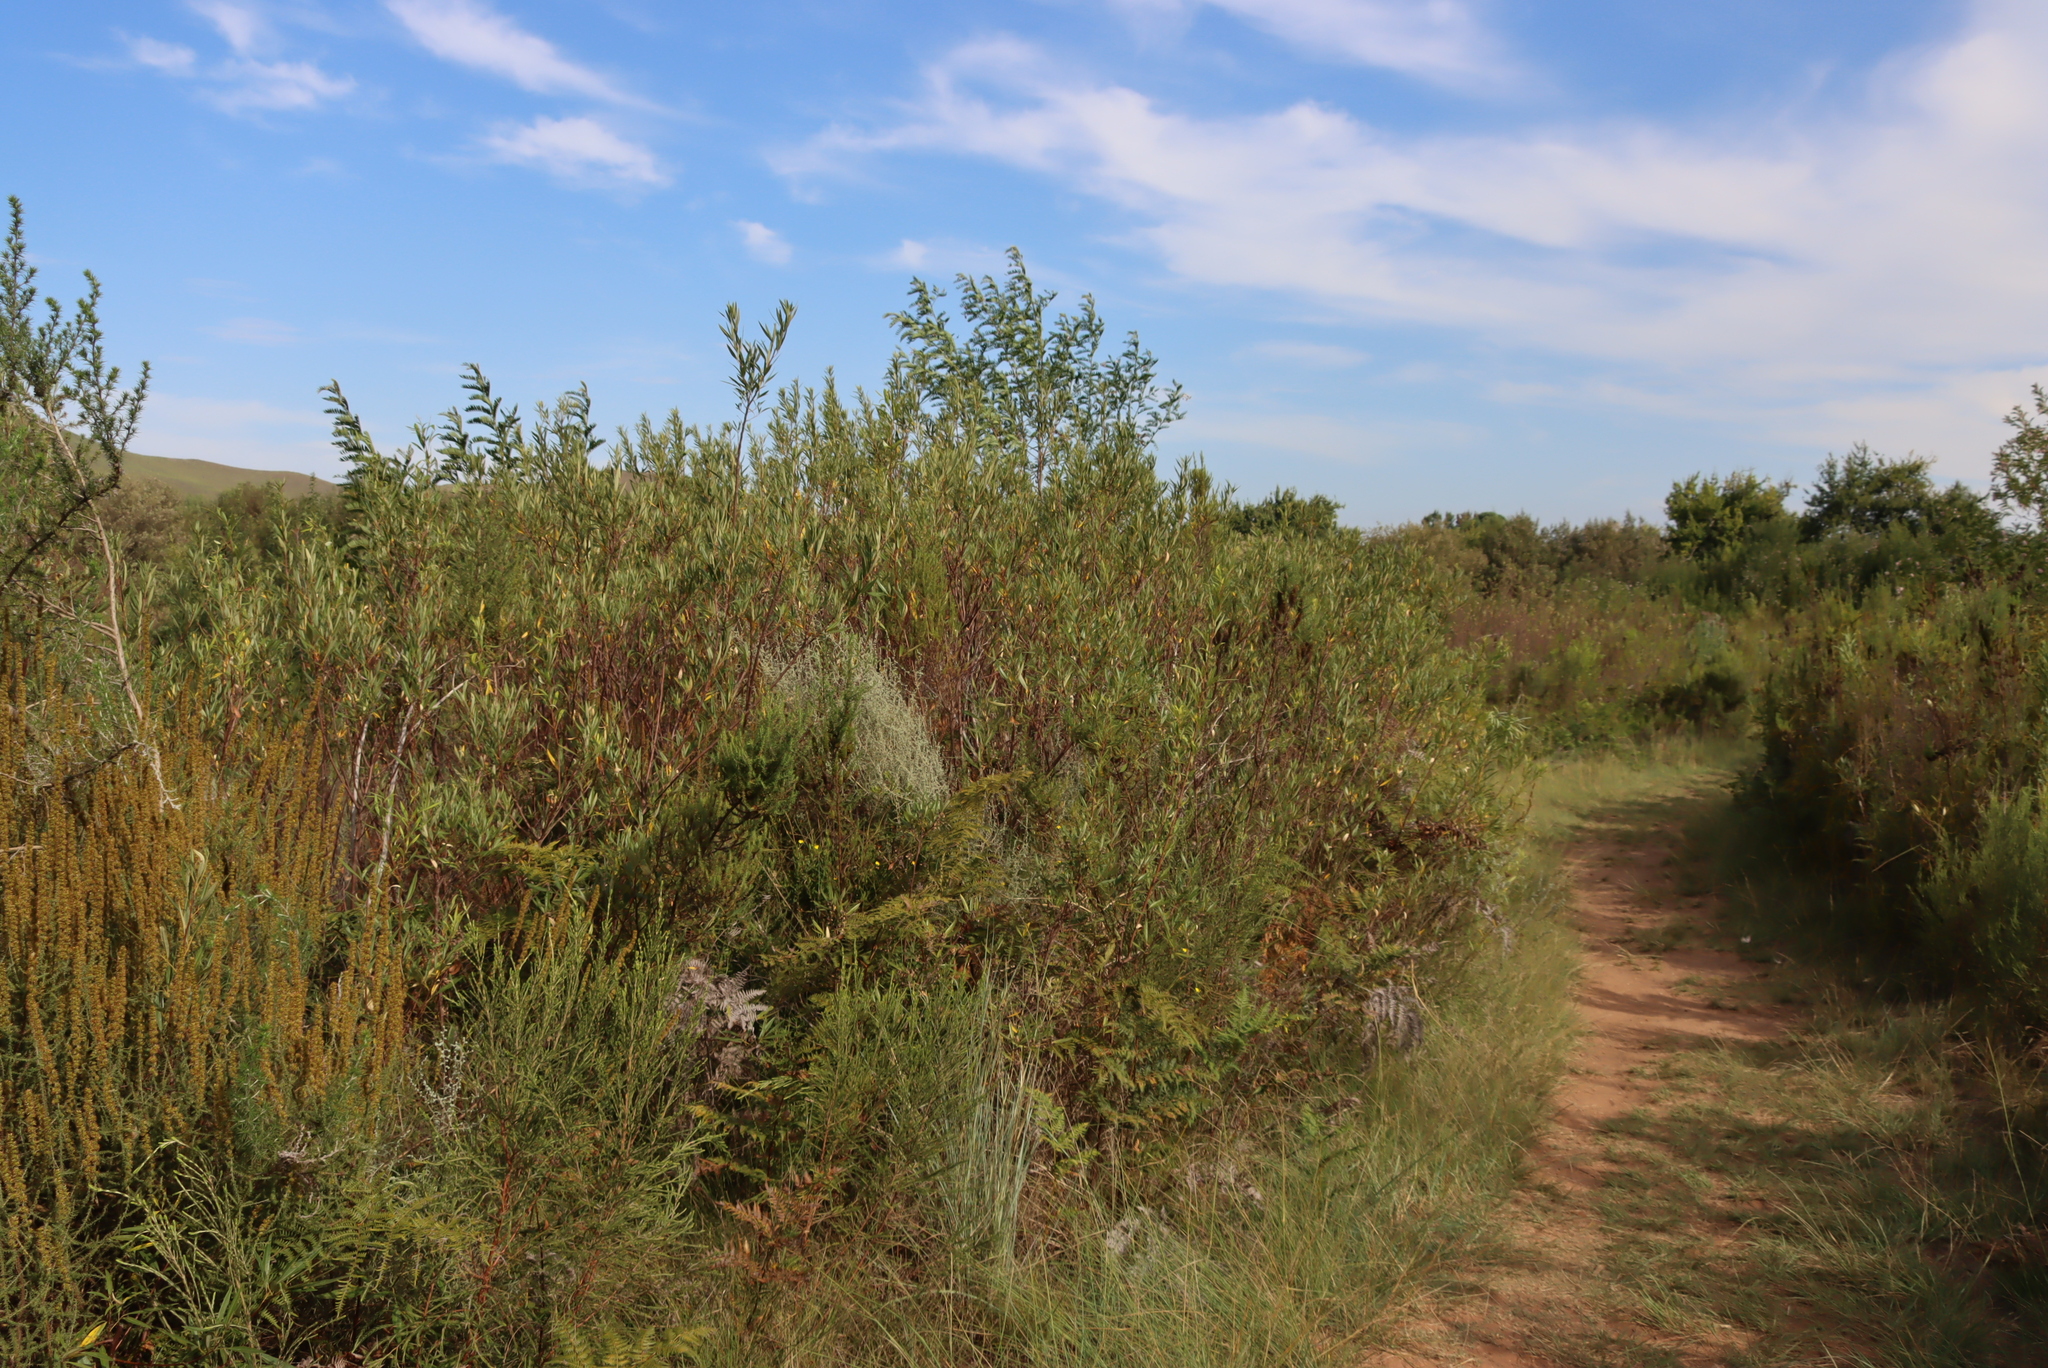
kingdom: Plantae
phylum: Tracheophyta
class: Magnoliopsida
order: Sapindales
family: Anacardiaceae
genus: Searsia
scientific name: Searsia angustifolia
